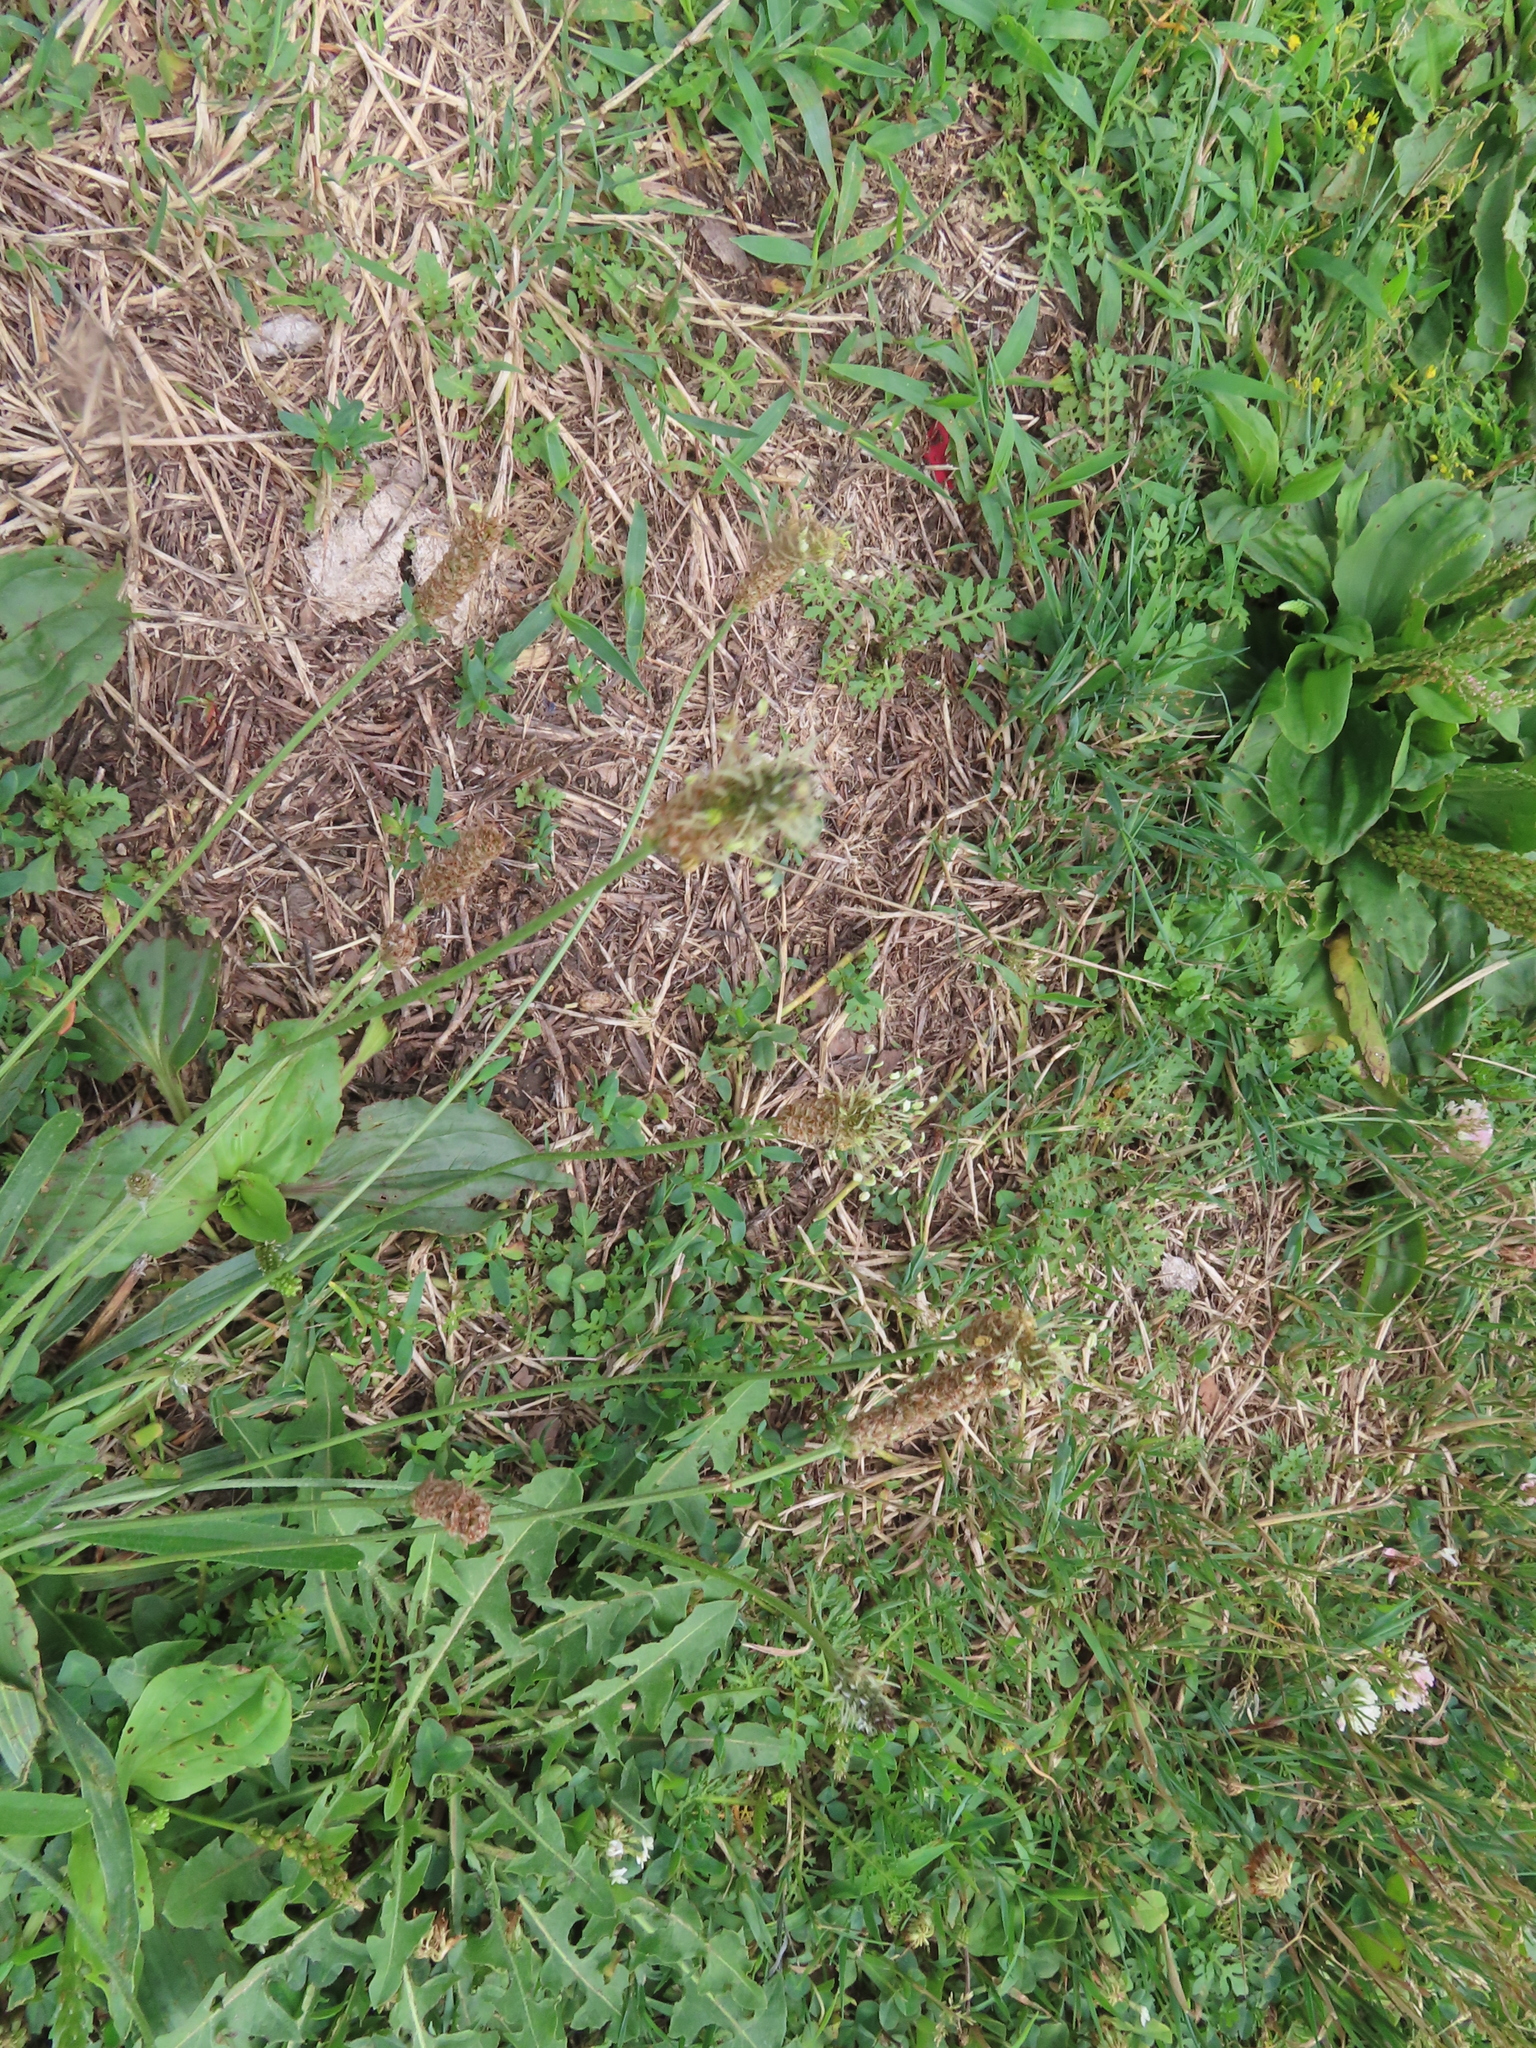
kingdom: Plantae
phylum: Tracheophyta
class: Magnoliopsida
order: Lamiales
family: Plantaginaceae
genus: Plantago
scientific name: Plantago lanceolata
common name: Ribwort plantain
